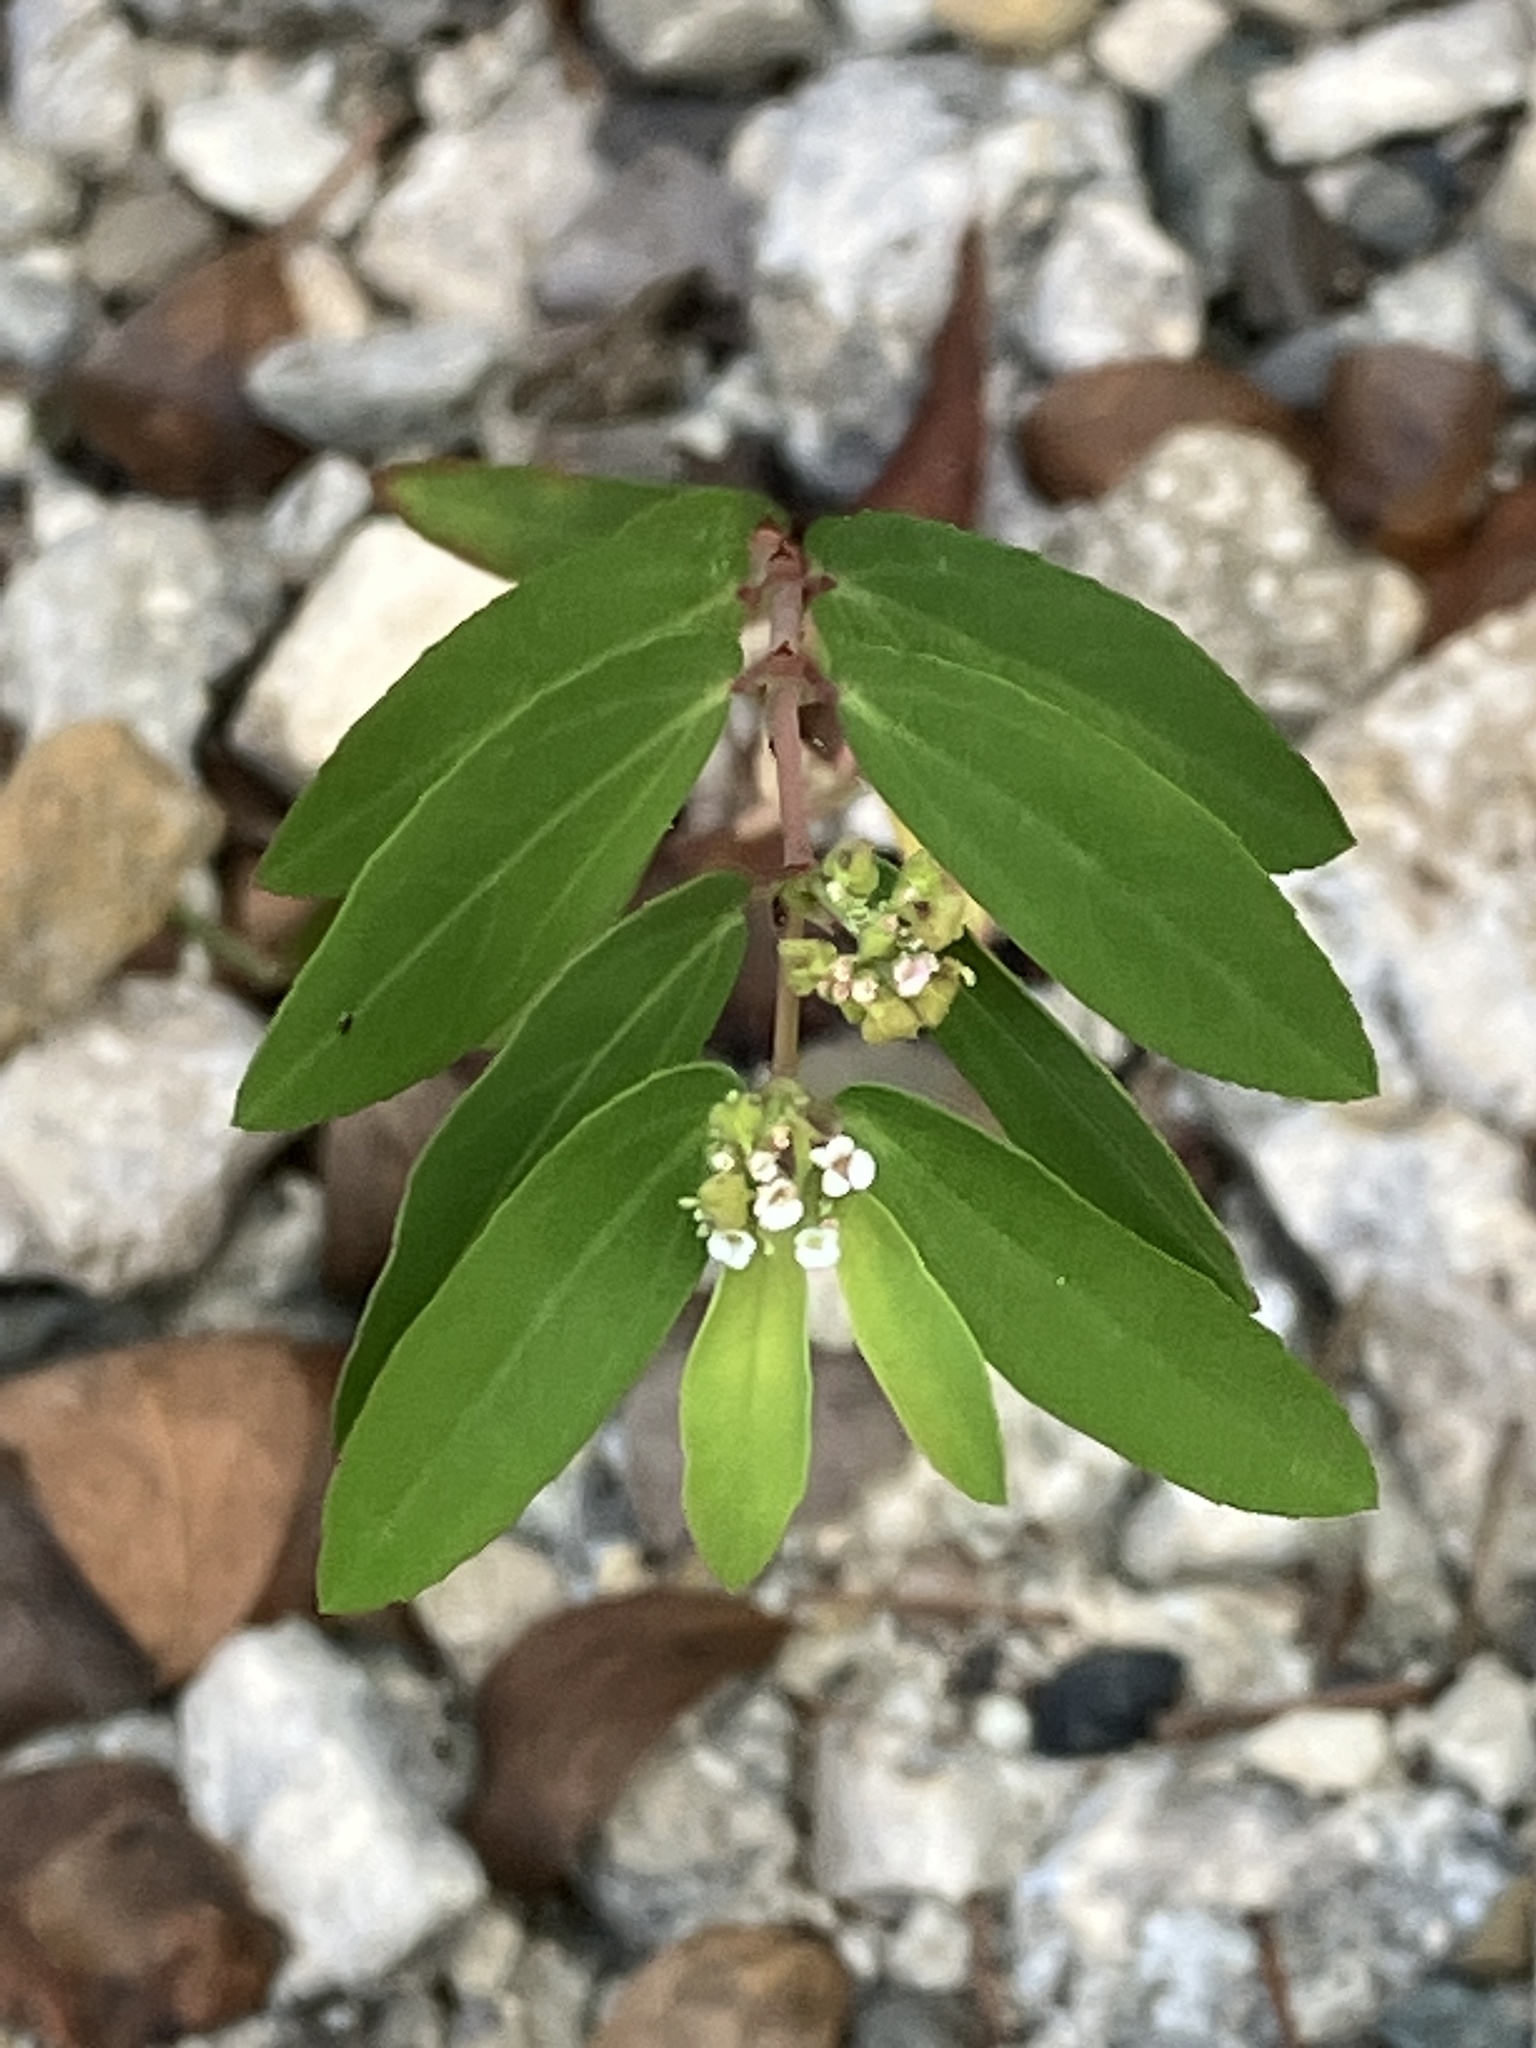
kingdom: Plantae
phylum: Tracheophyta
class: Magnoliopsida
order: Malpighiales
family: Euphorbiaceae
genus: Euphorbia
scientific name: Euphorbia hypericifolia
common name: Graceful sandmat
